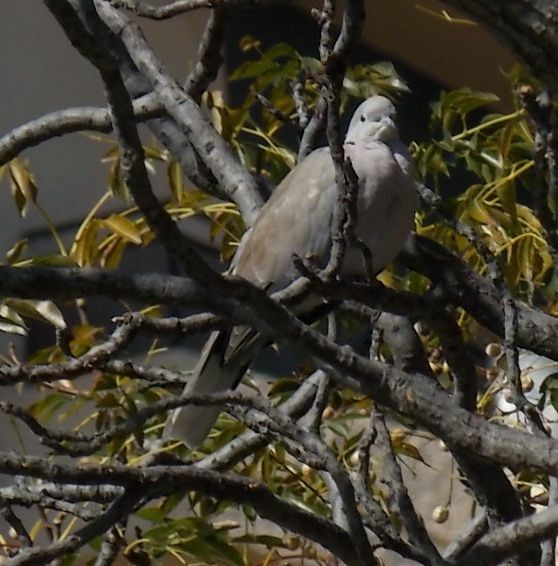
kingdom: Animalia
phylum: Chordata
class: Aves
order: Columbiformes
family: Columbidae
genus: Streptopelia
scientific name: Streptopelia decaocto
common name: Eurasian collared dove
